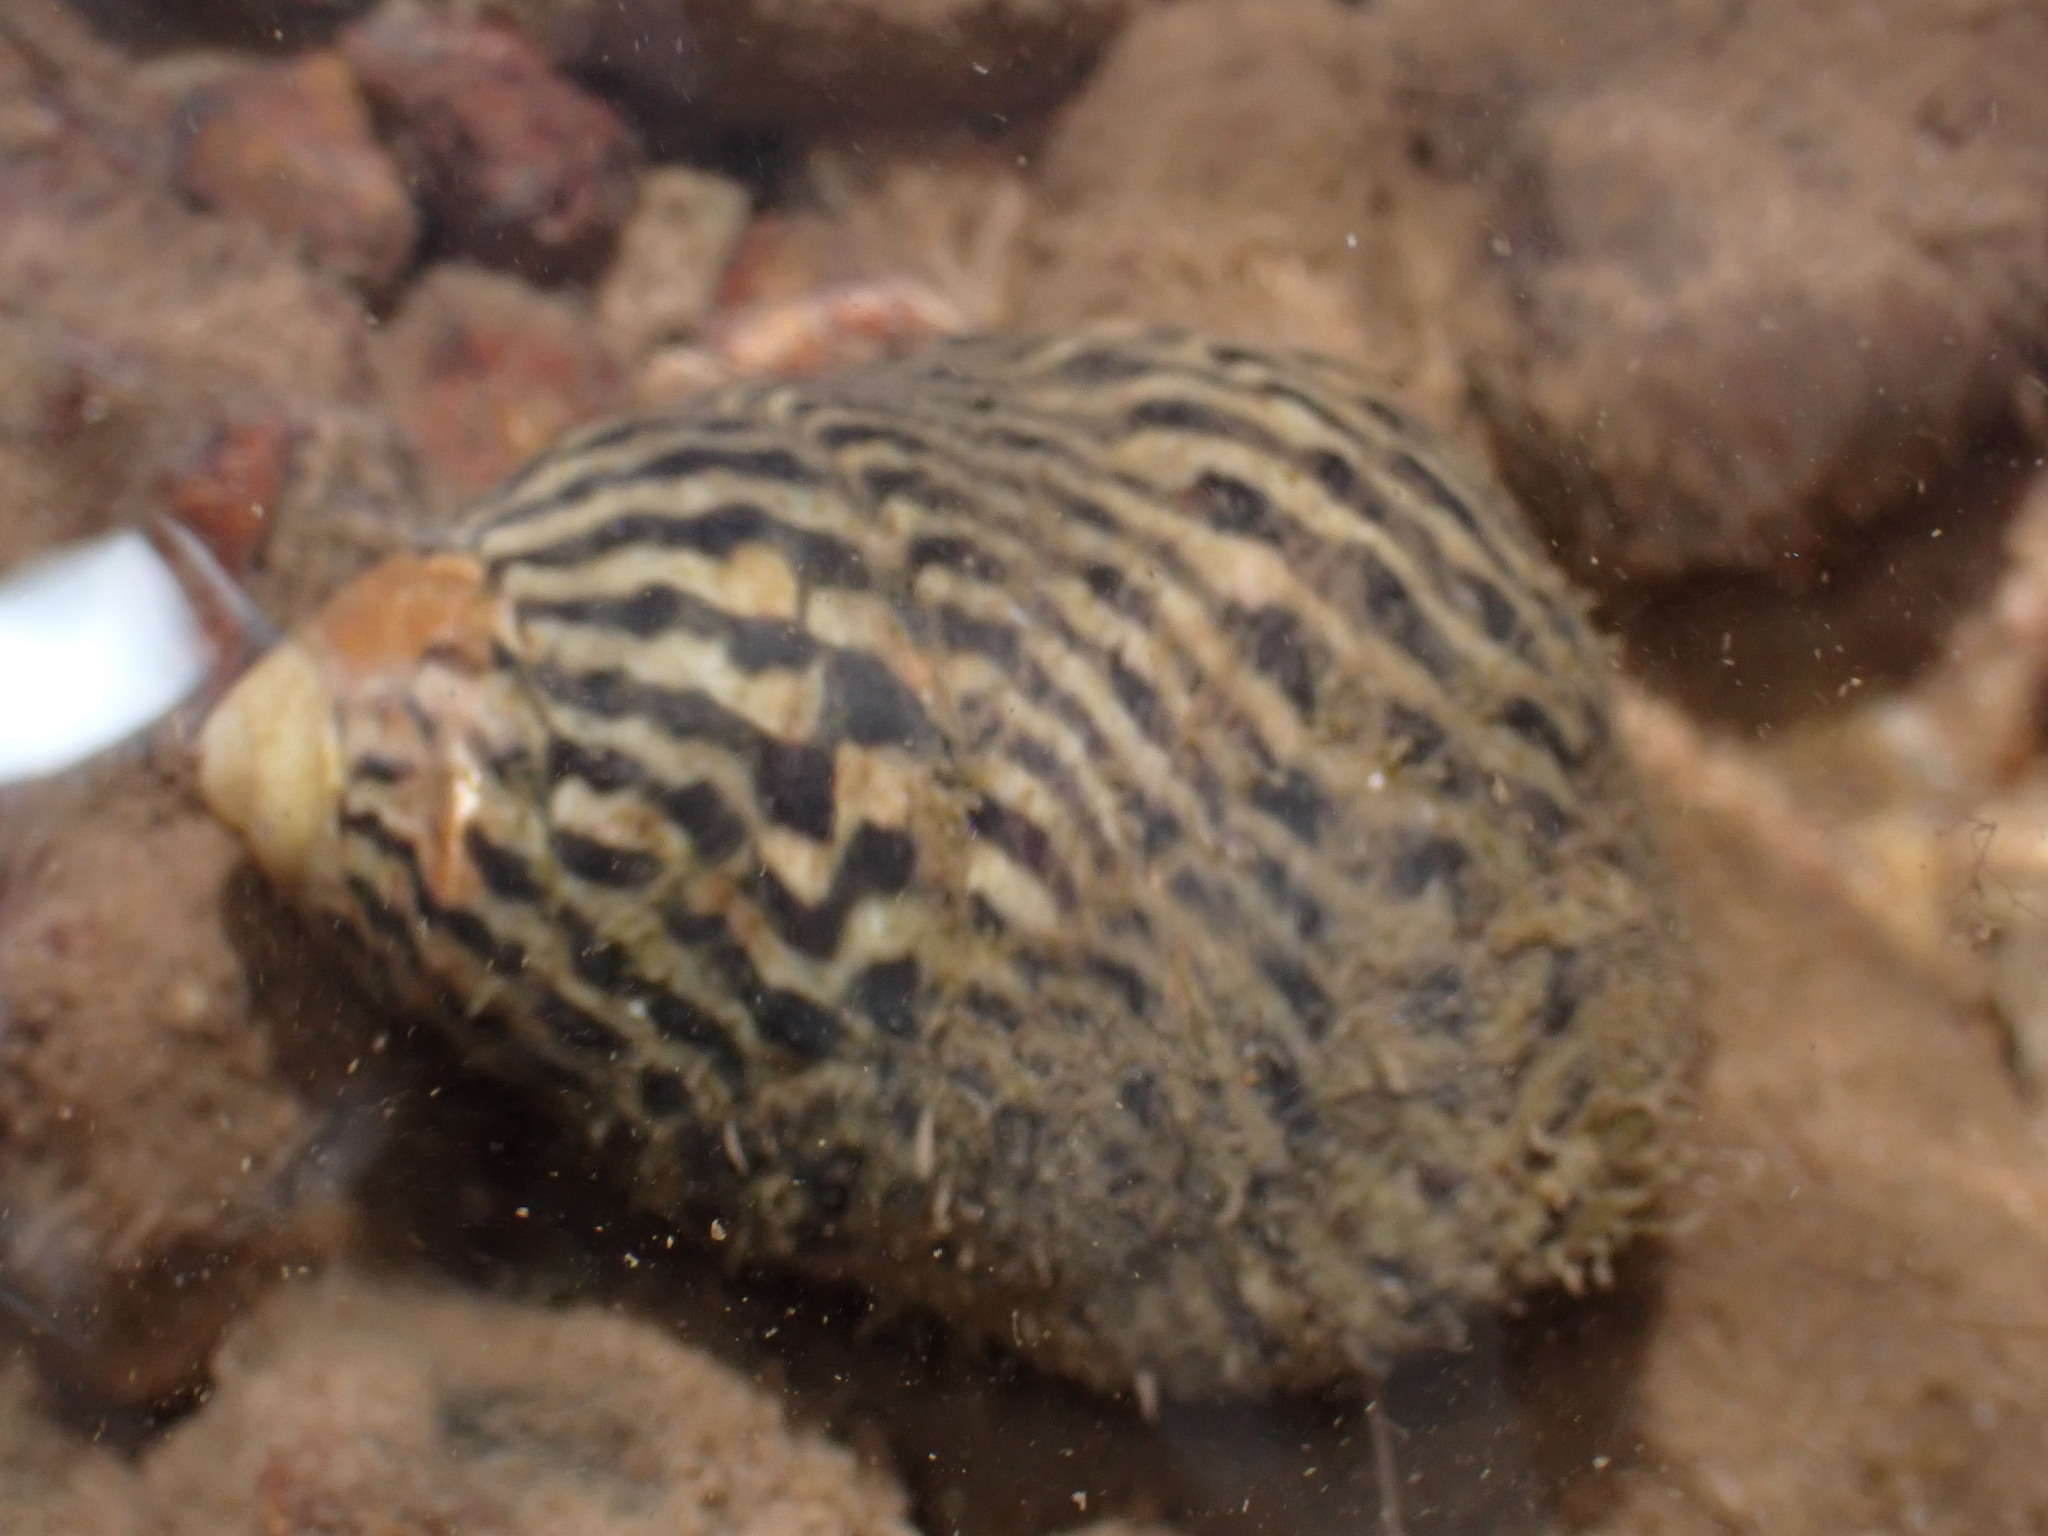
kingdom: Animalia
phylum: Mollusca
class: Gastropoda
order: Trochida
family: Trochidae
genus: Austrocochlea
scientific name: Austrocochlea porcata
